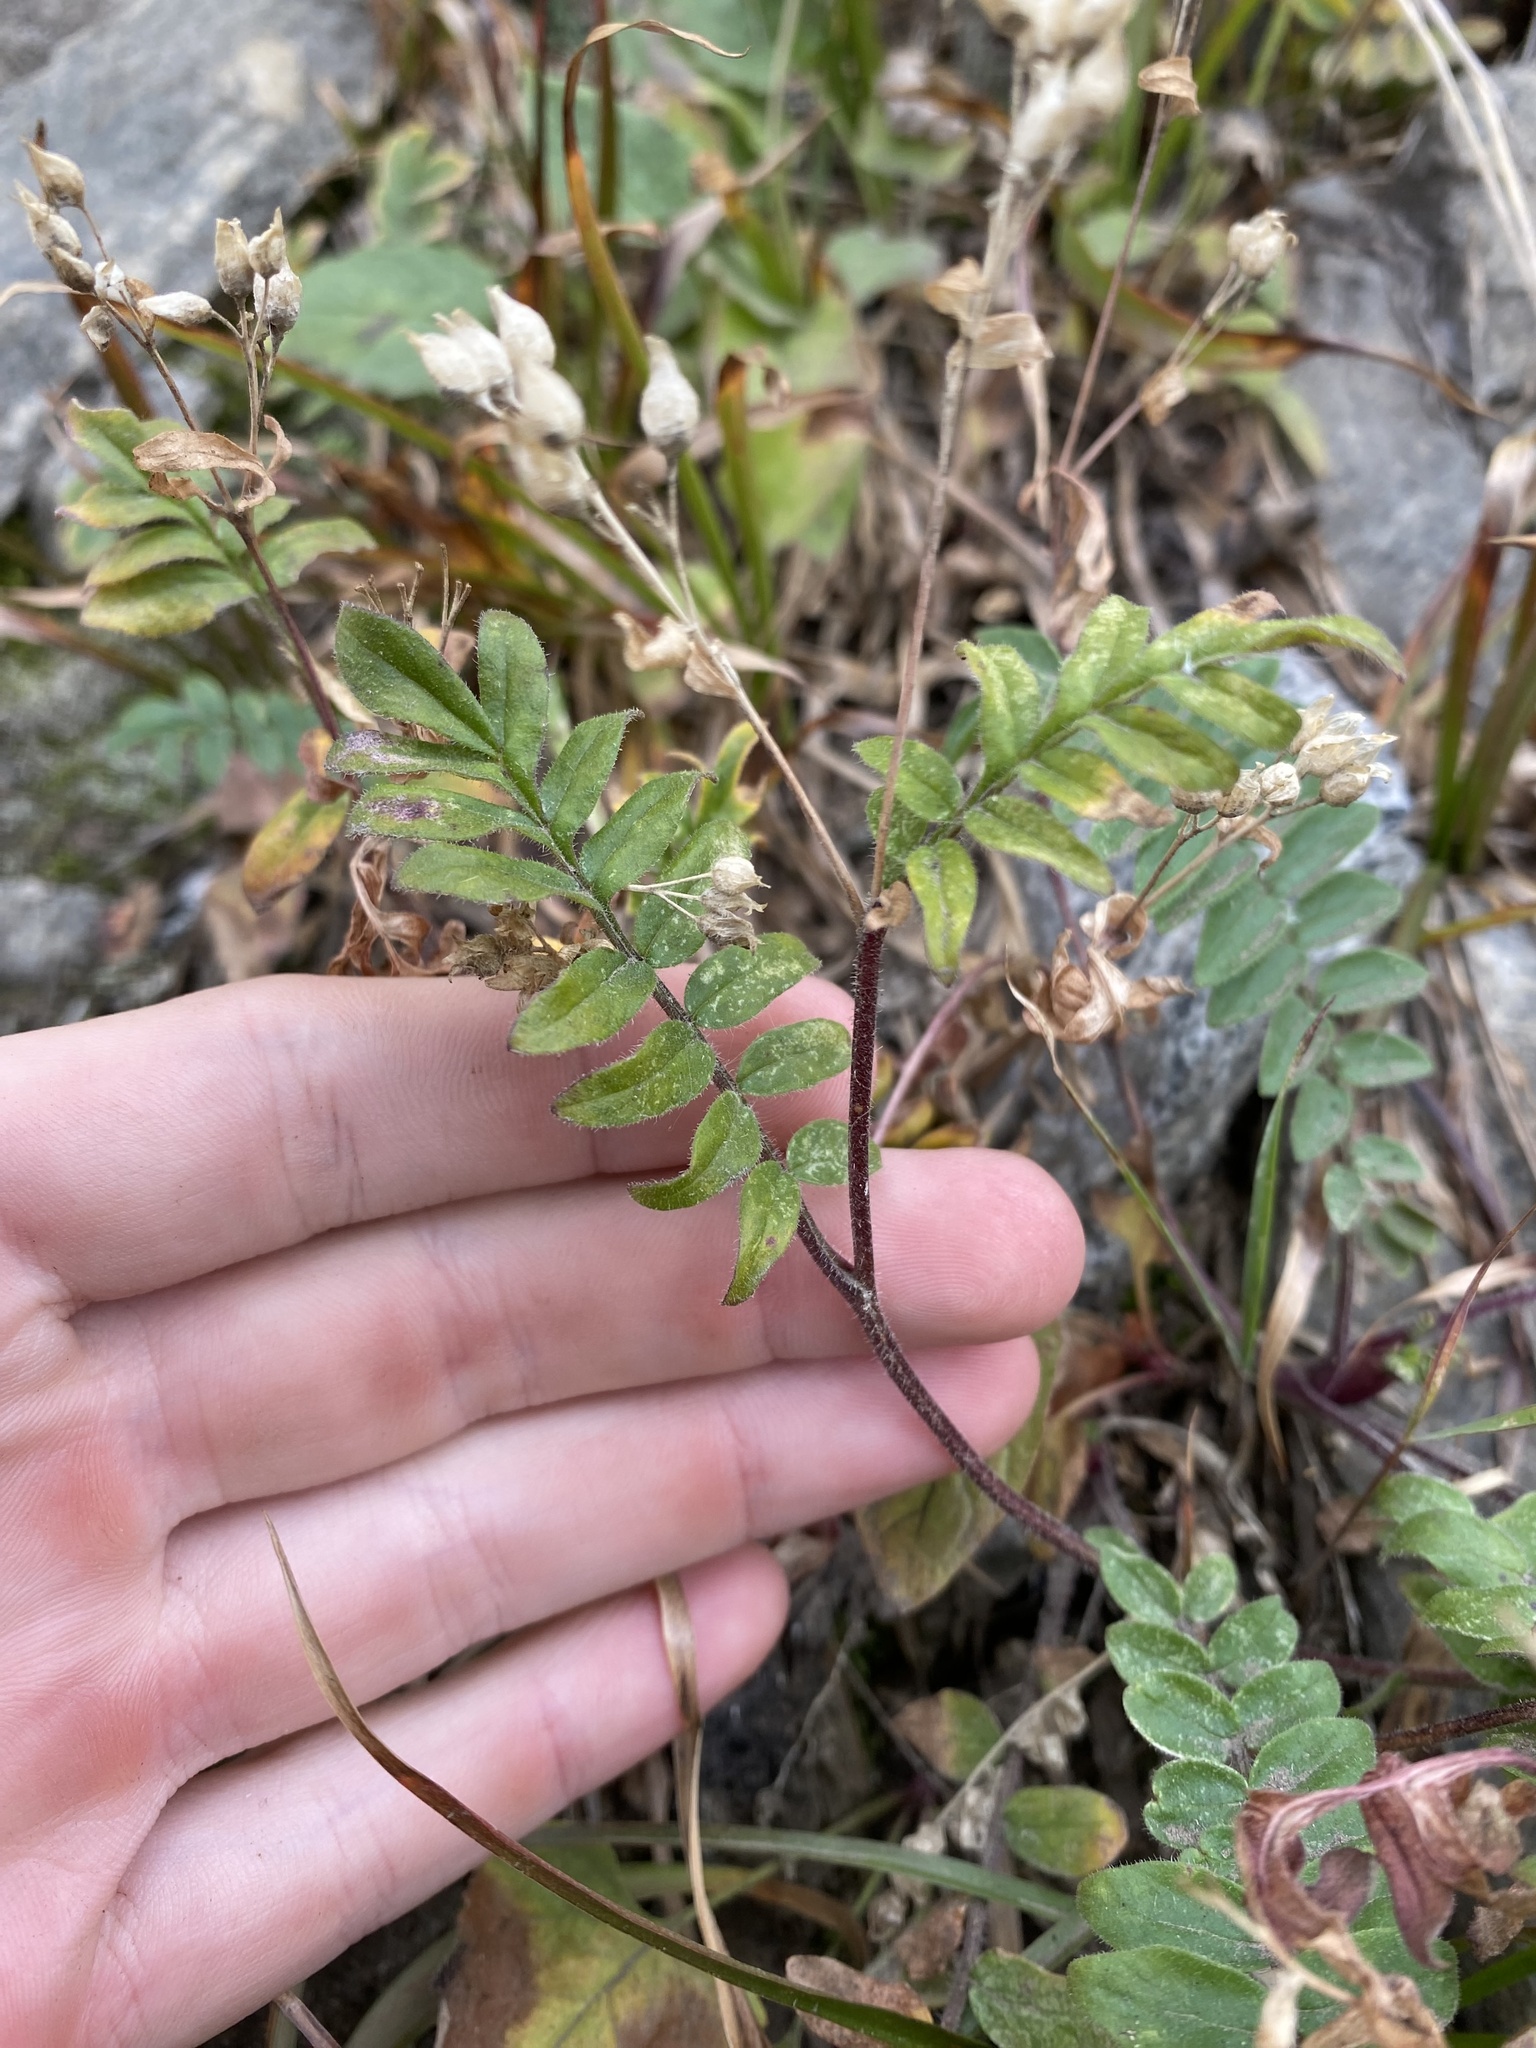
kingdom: Plantae
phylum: Tracheophyta
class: Magnoliopsida
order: Ericales
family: Polemoniaceae
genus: Polemonium
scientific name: Polemonium californicum
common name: California jacob's ladder
